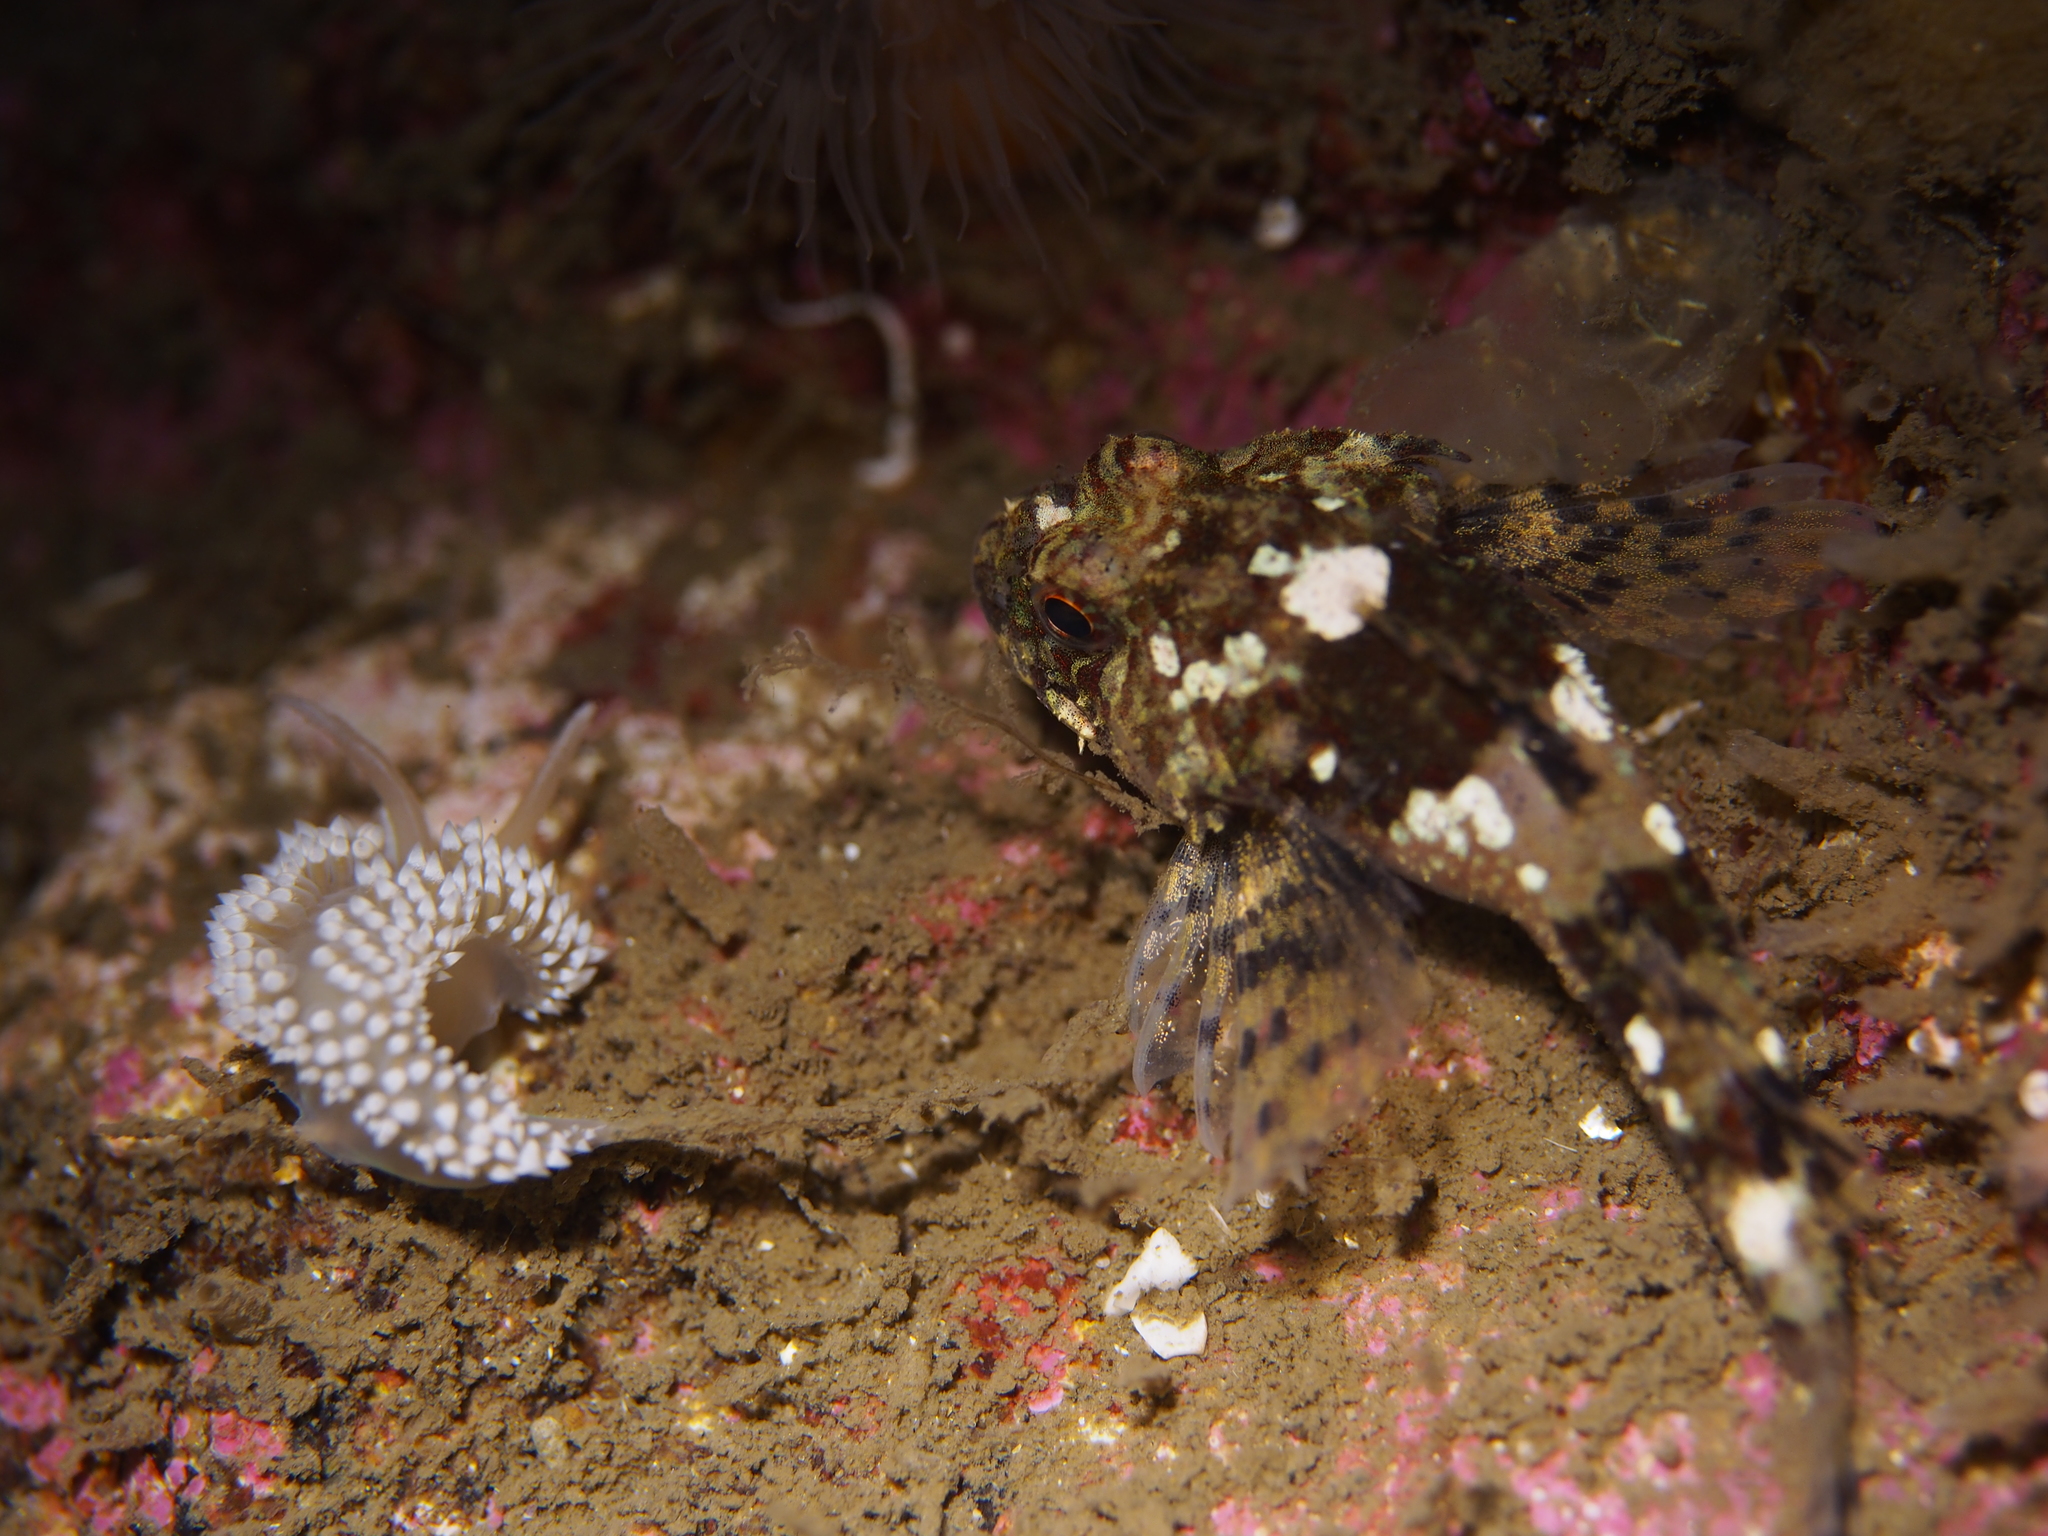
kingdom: Animalia
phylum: Mollusca
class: Gastropoda
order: Nudibranchia
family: Coryphellidae
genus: Coryphella
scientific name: Coryphella verrucosa
